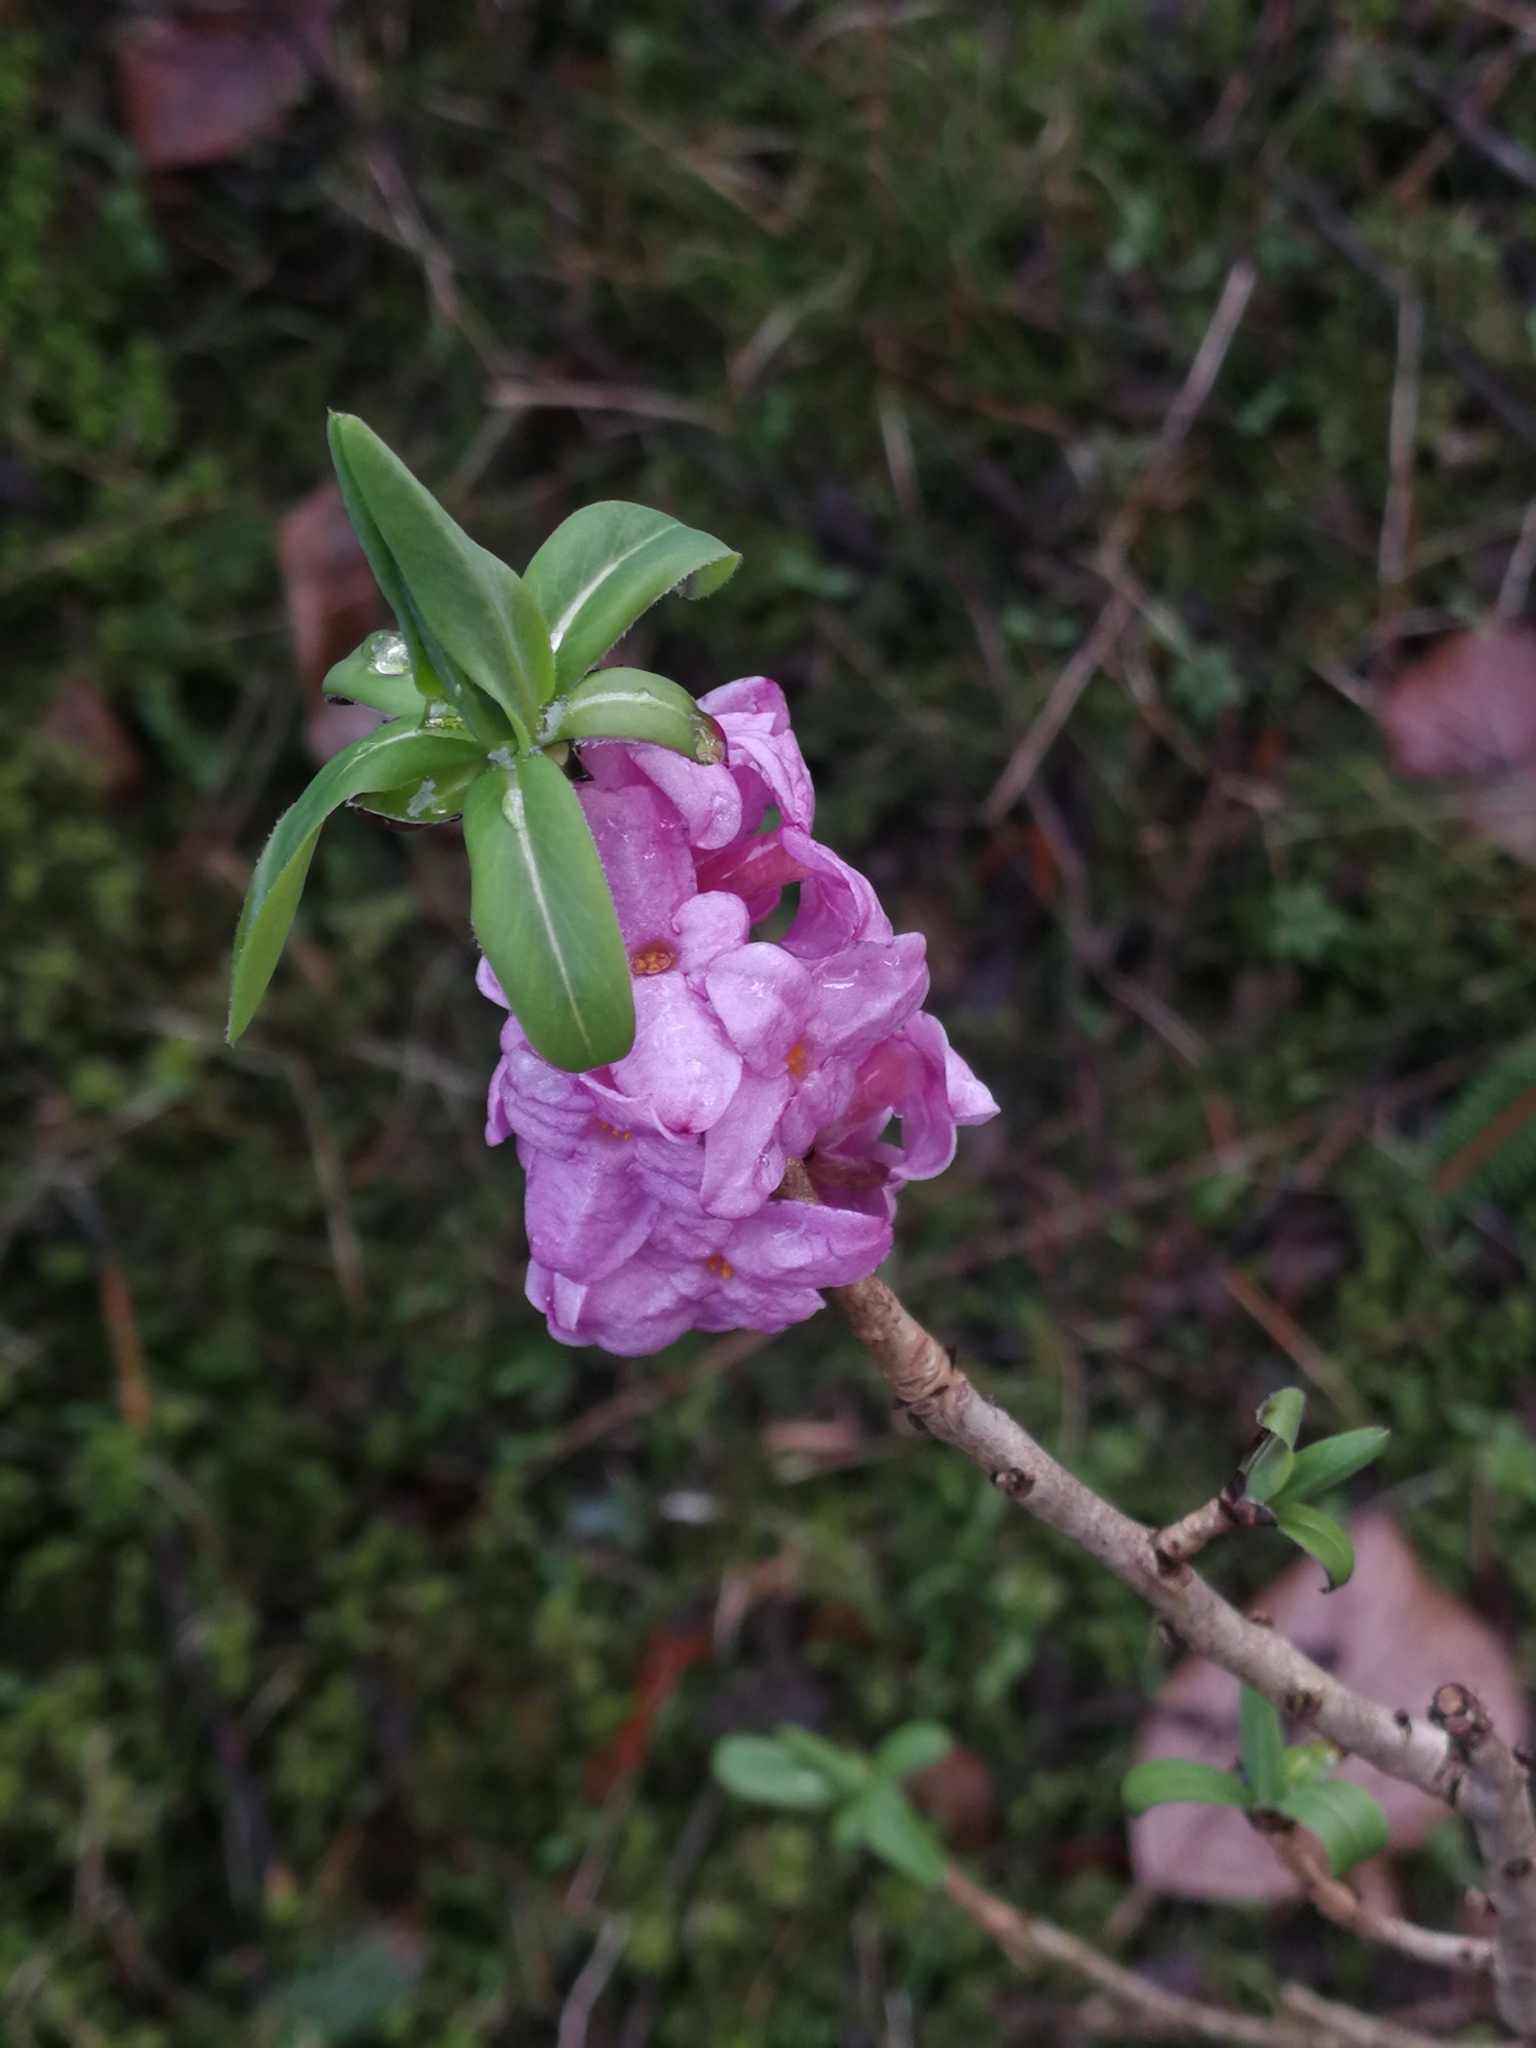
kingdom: Plantae
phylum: Tracheophyta
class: Magnoliopsida
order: Malvales
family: Thymelaeaceae
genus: Daphne
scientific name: Daphne mezereum
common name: Mezereon
